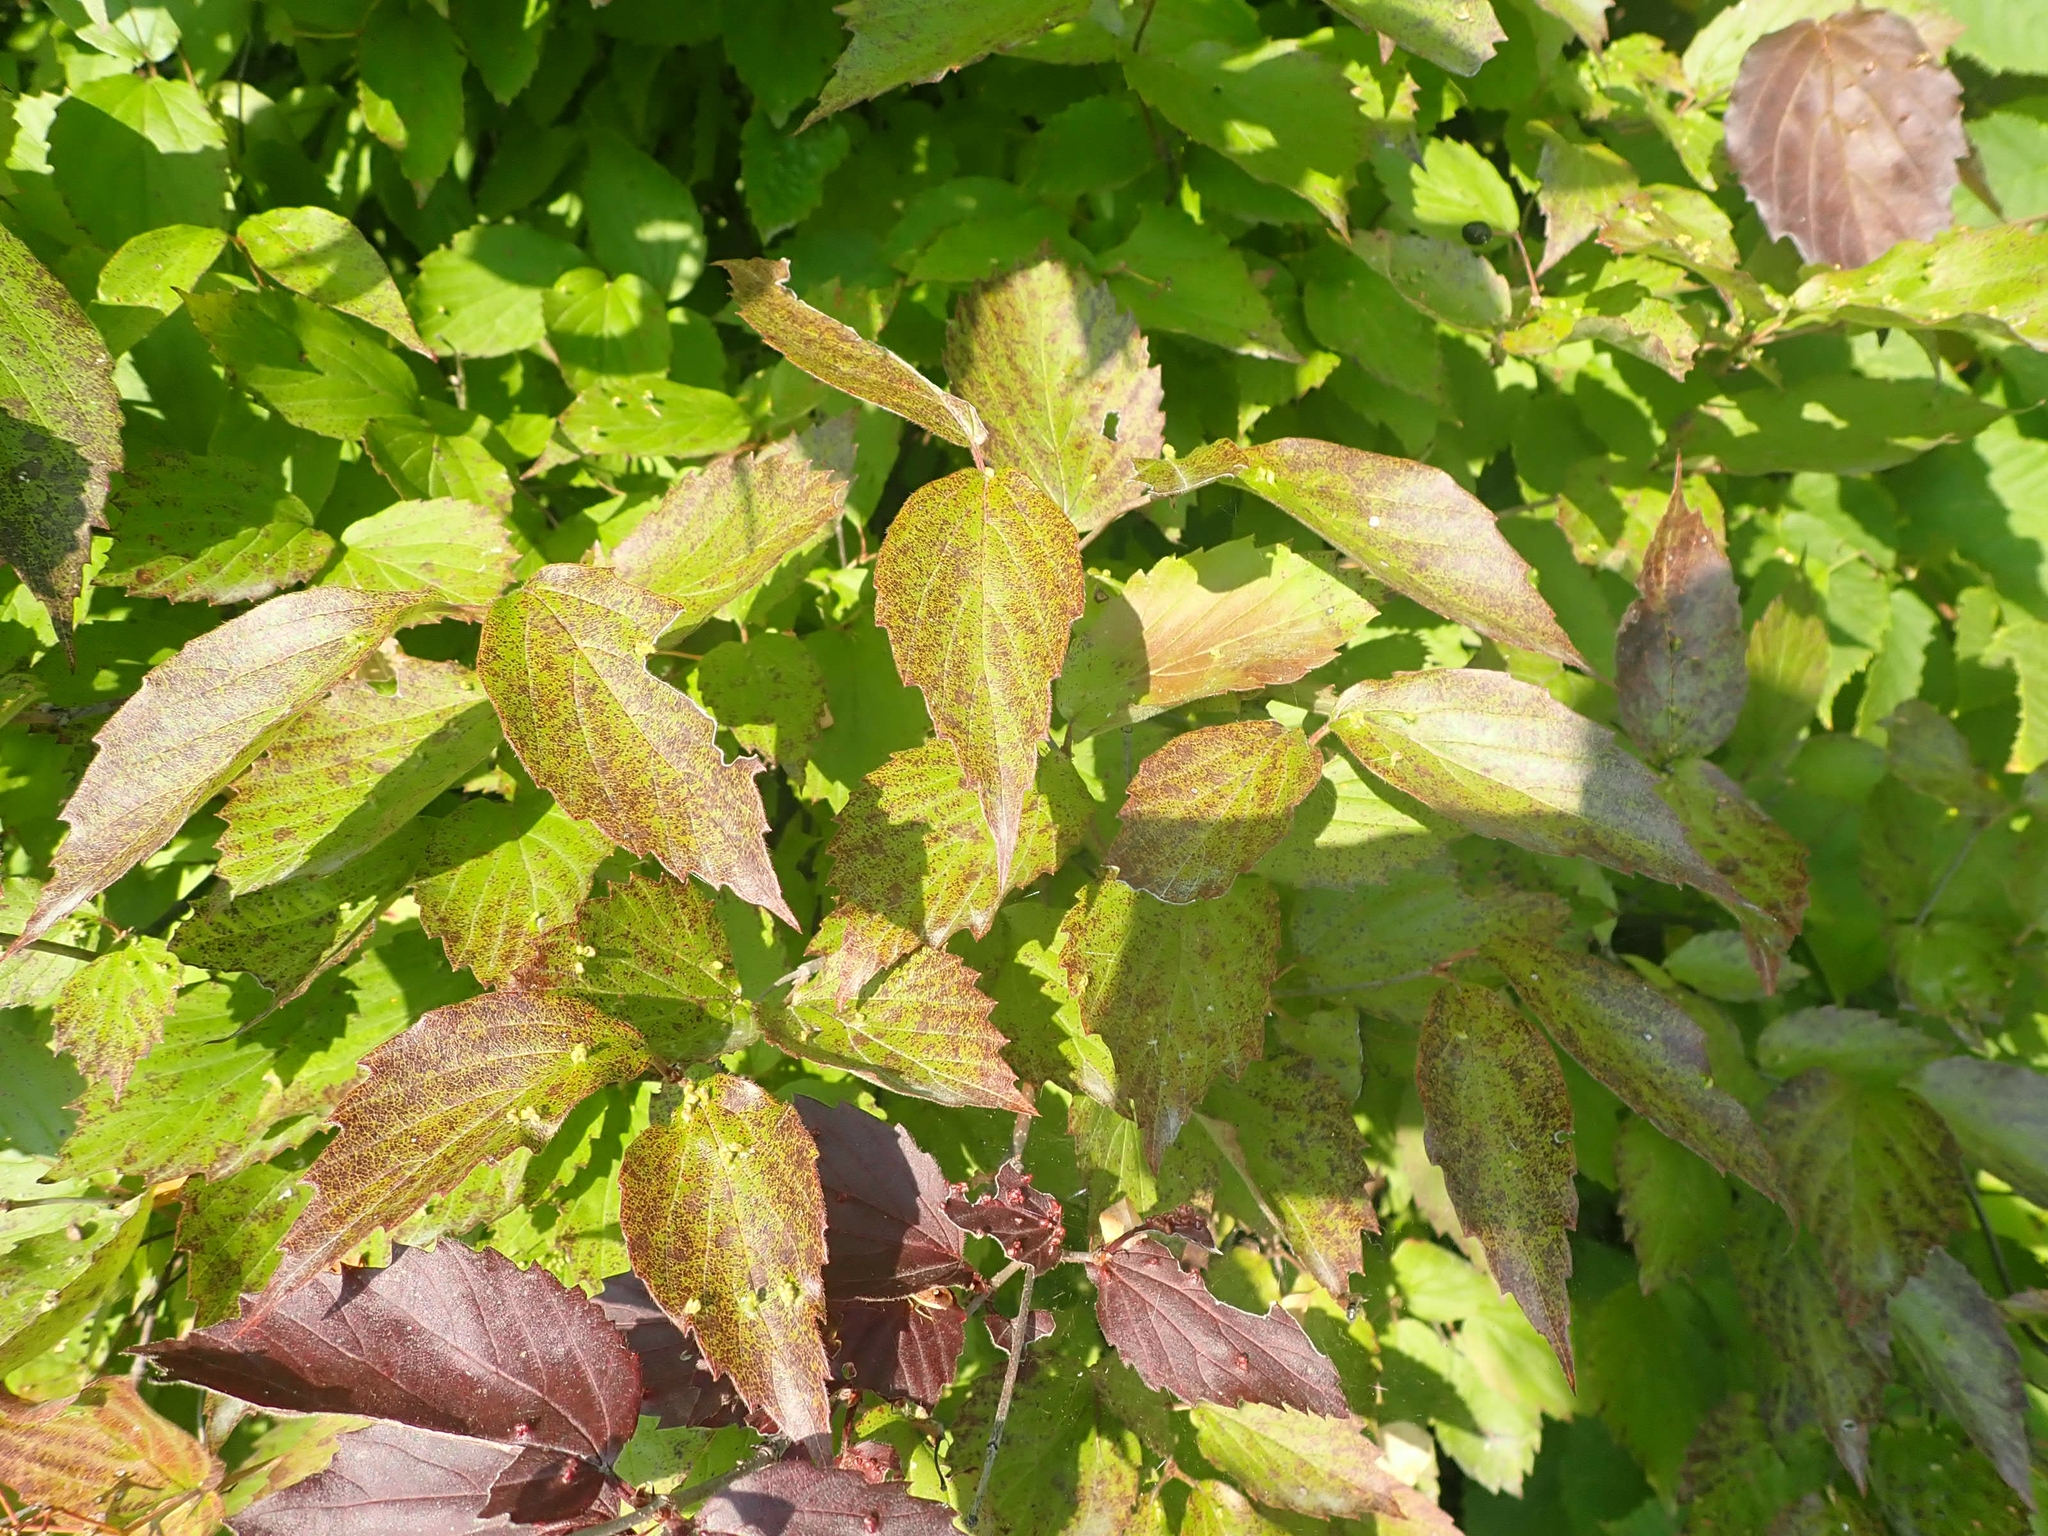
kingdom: Plantae
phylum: Tracheophyta
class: Magnoliopsida
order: Dipsacales
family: Viburnaceae
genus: Viburnum
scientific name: Viburnum rafinesqueanum
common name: Downy arrow-wood
